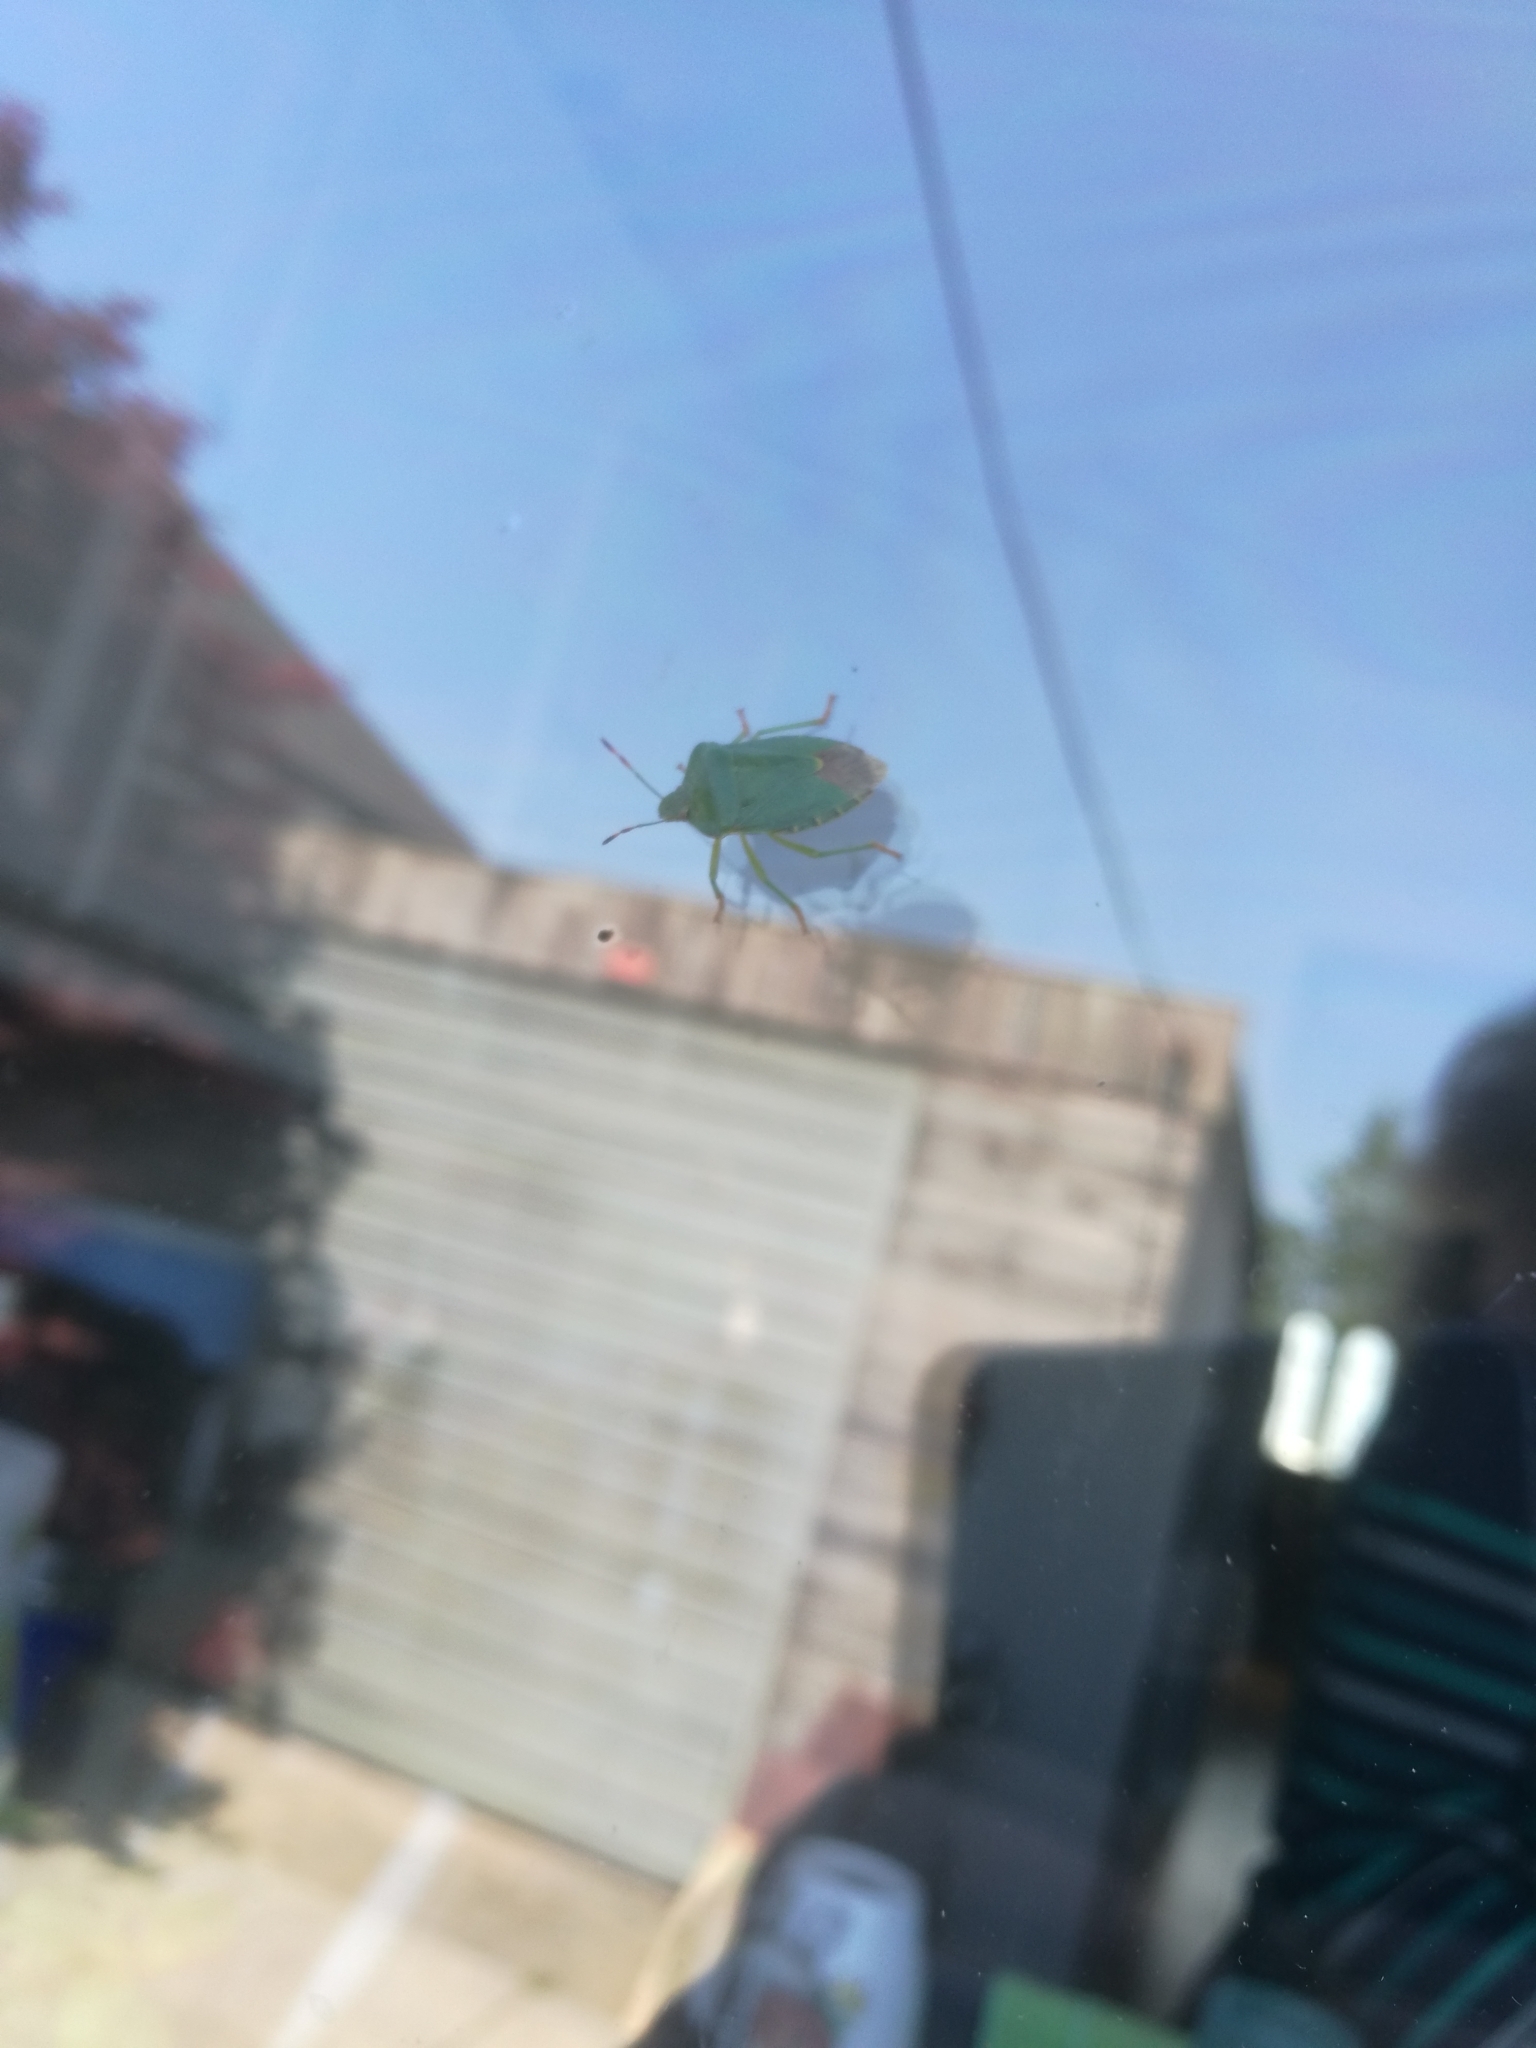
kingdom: Animalia
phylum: Arthropoda
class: Insecta
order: Hemiptera
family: Pentatomidae
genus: Palomena
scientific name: Palomena prasina
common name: Green shieldbug
